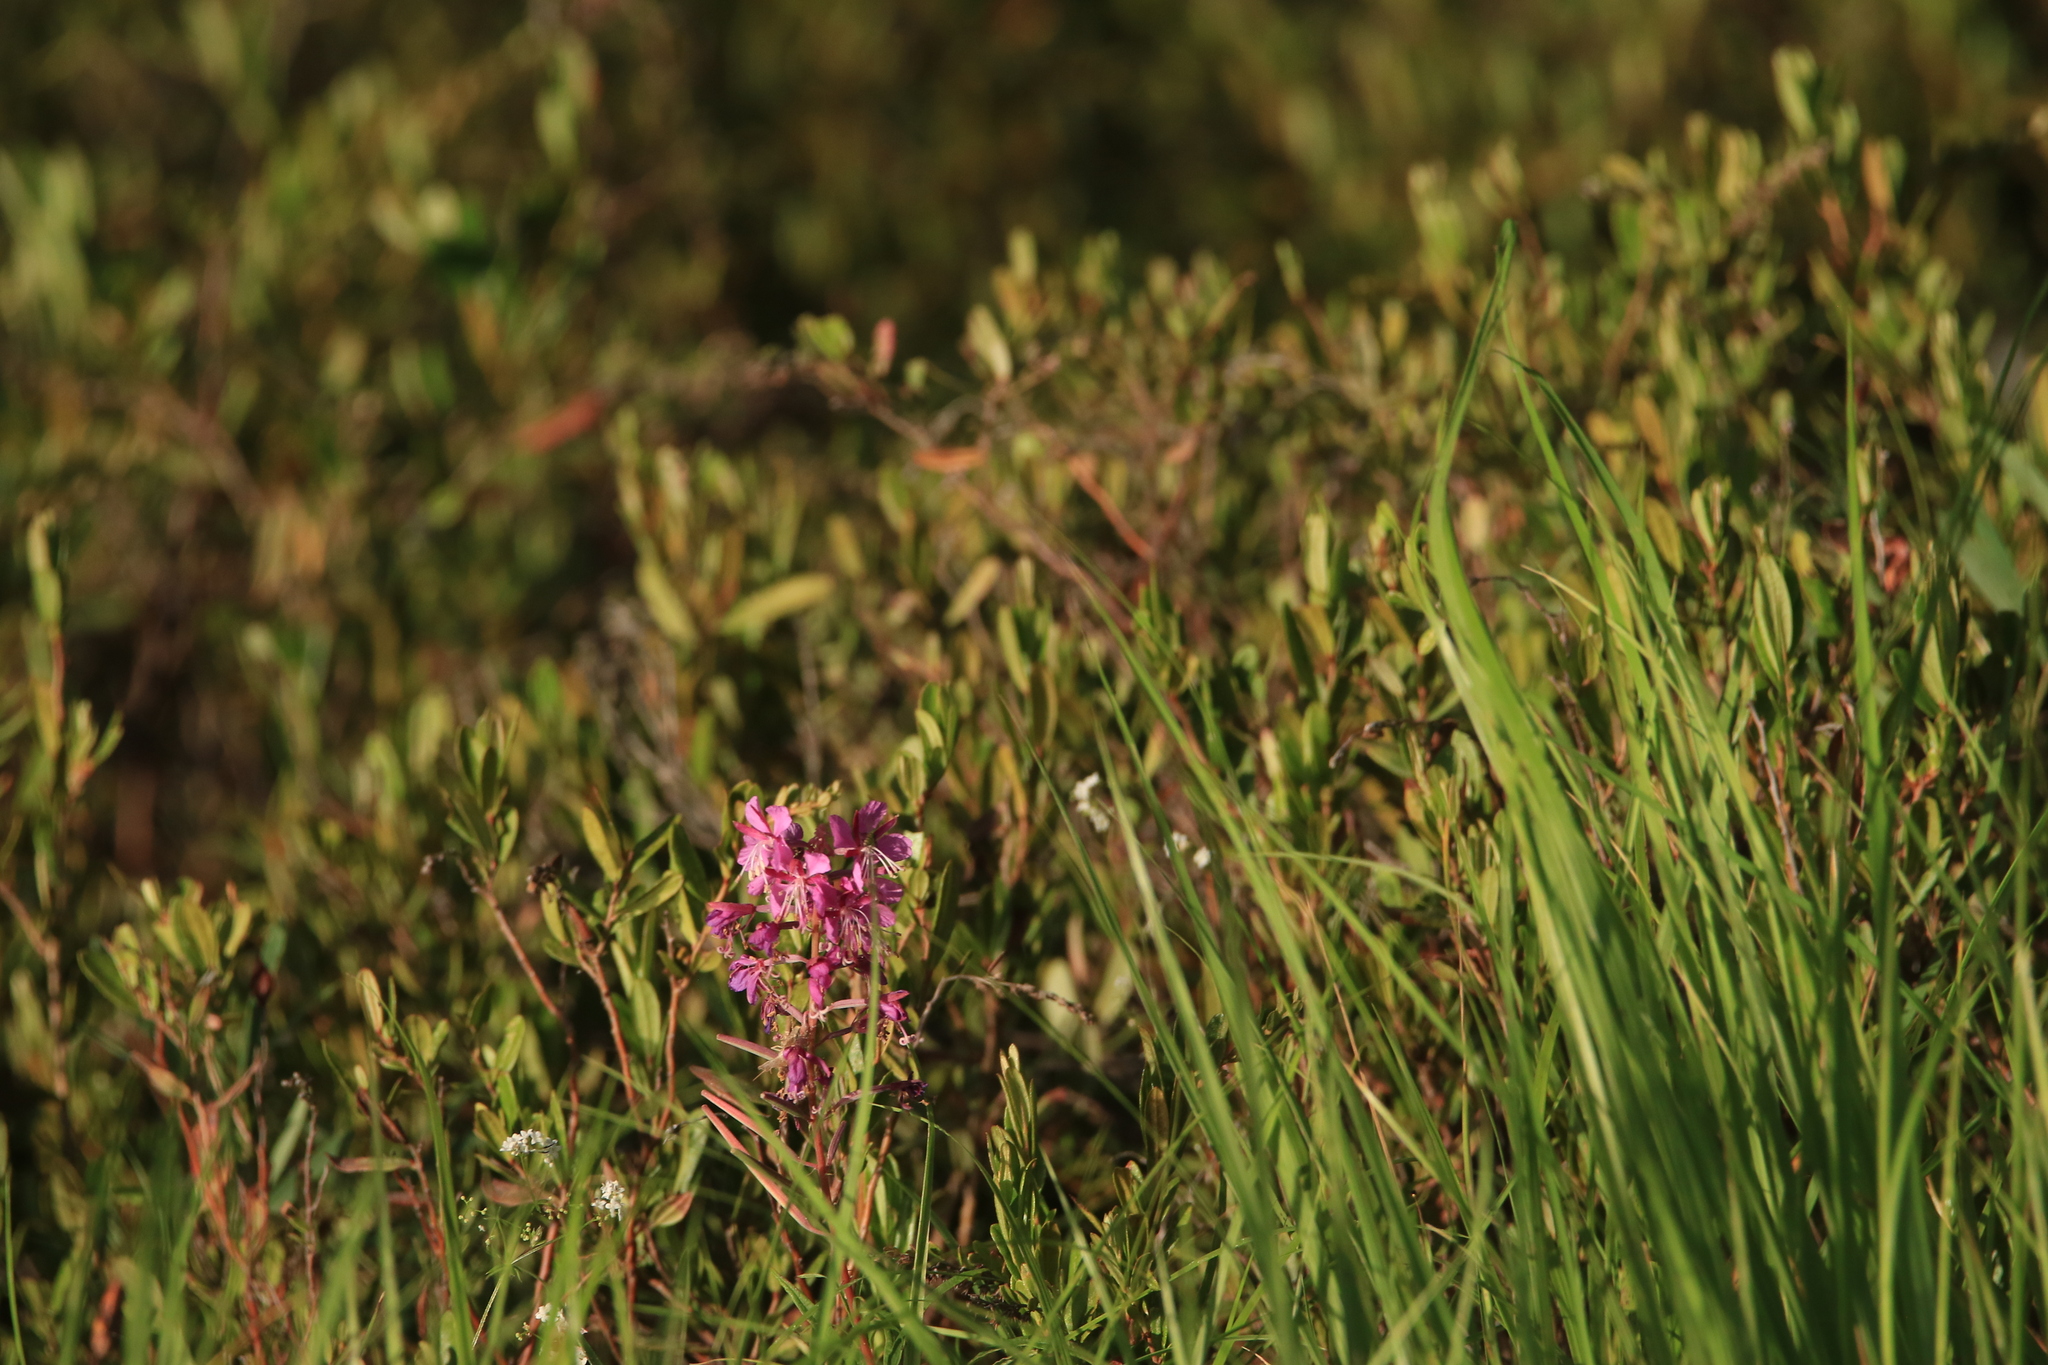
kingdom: Plantae
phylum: Tracheophyta
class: Magnoliopsida
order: Myrtales
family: Onagraceae
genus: Chamaenerion
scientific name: Chamaenerion angustifolium
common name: Fireweed
